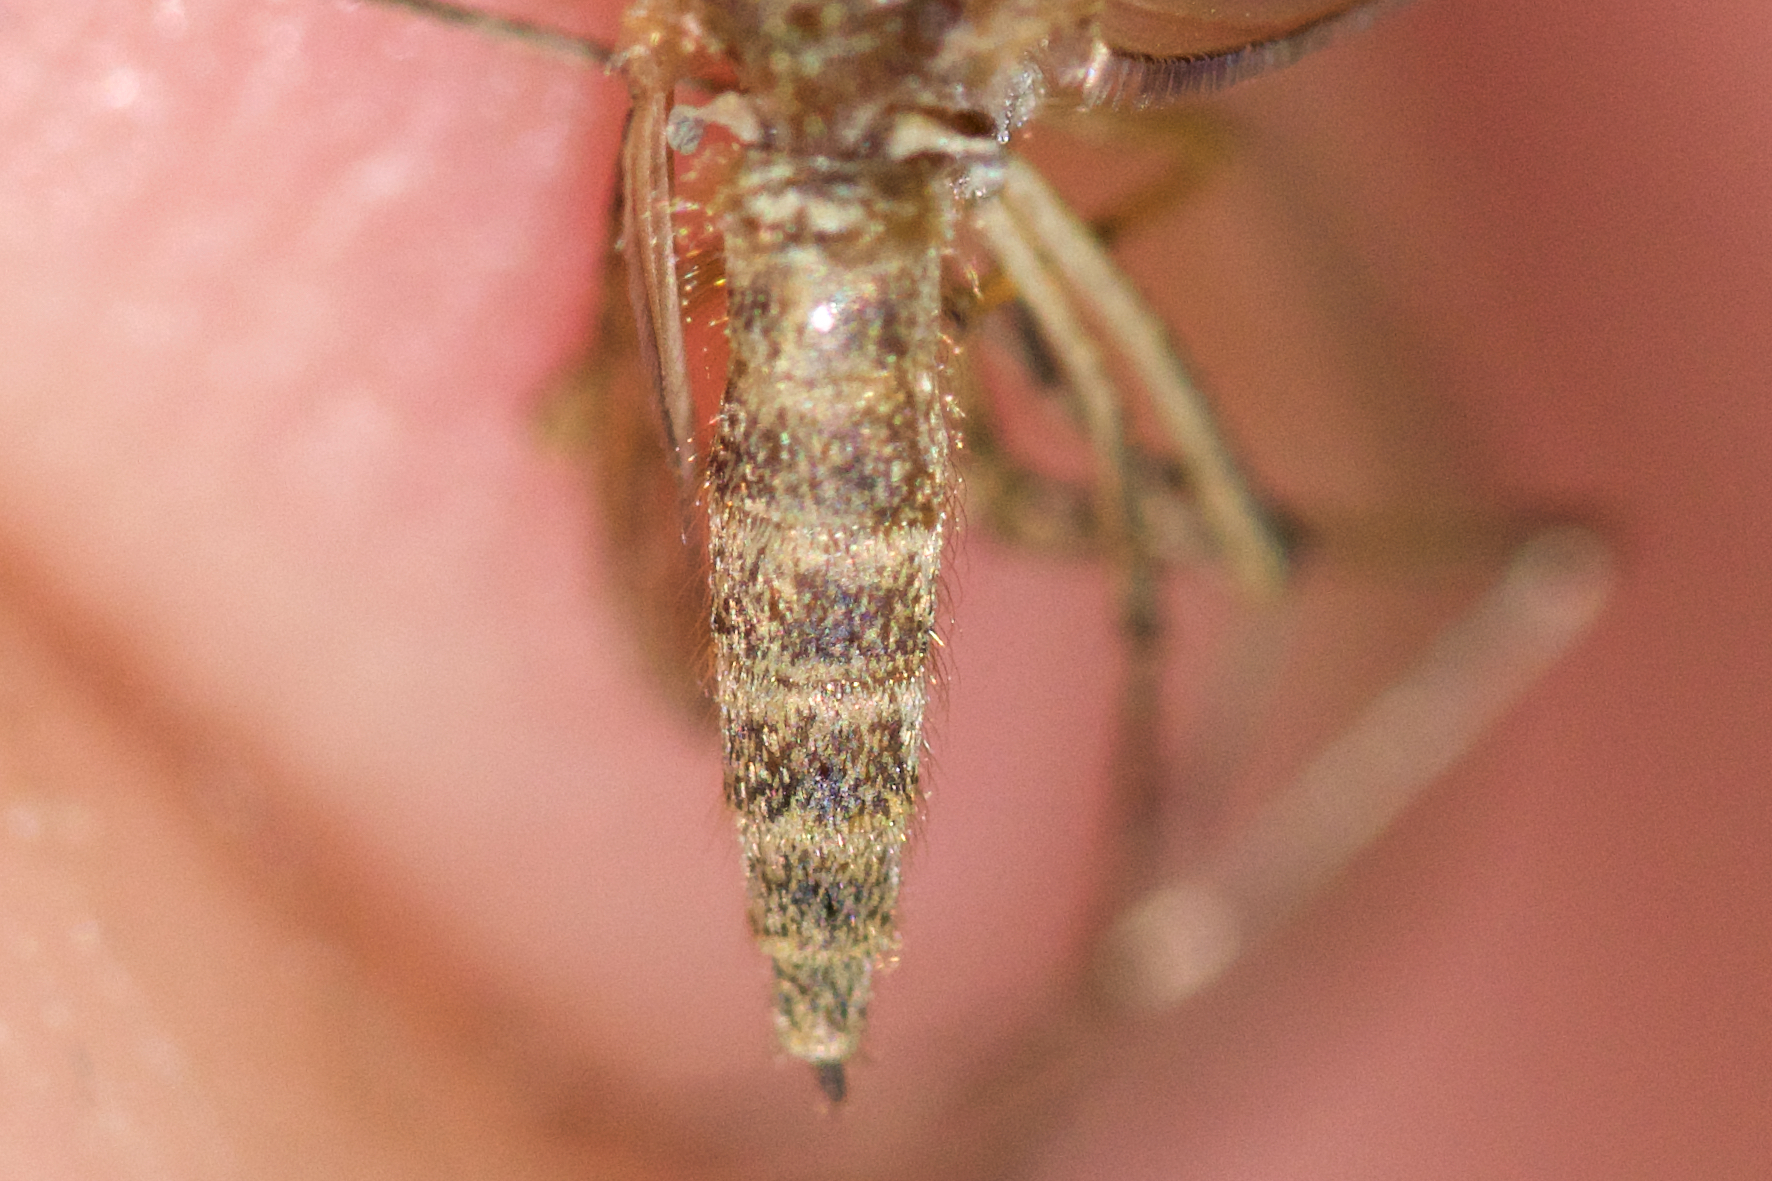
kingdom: Animalia
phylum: Arthropoda
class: Insecta
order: Diptera
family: Culicidae
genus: Aedes
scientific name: Aedes riparius
